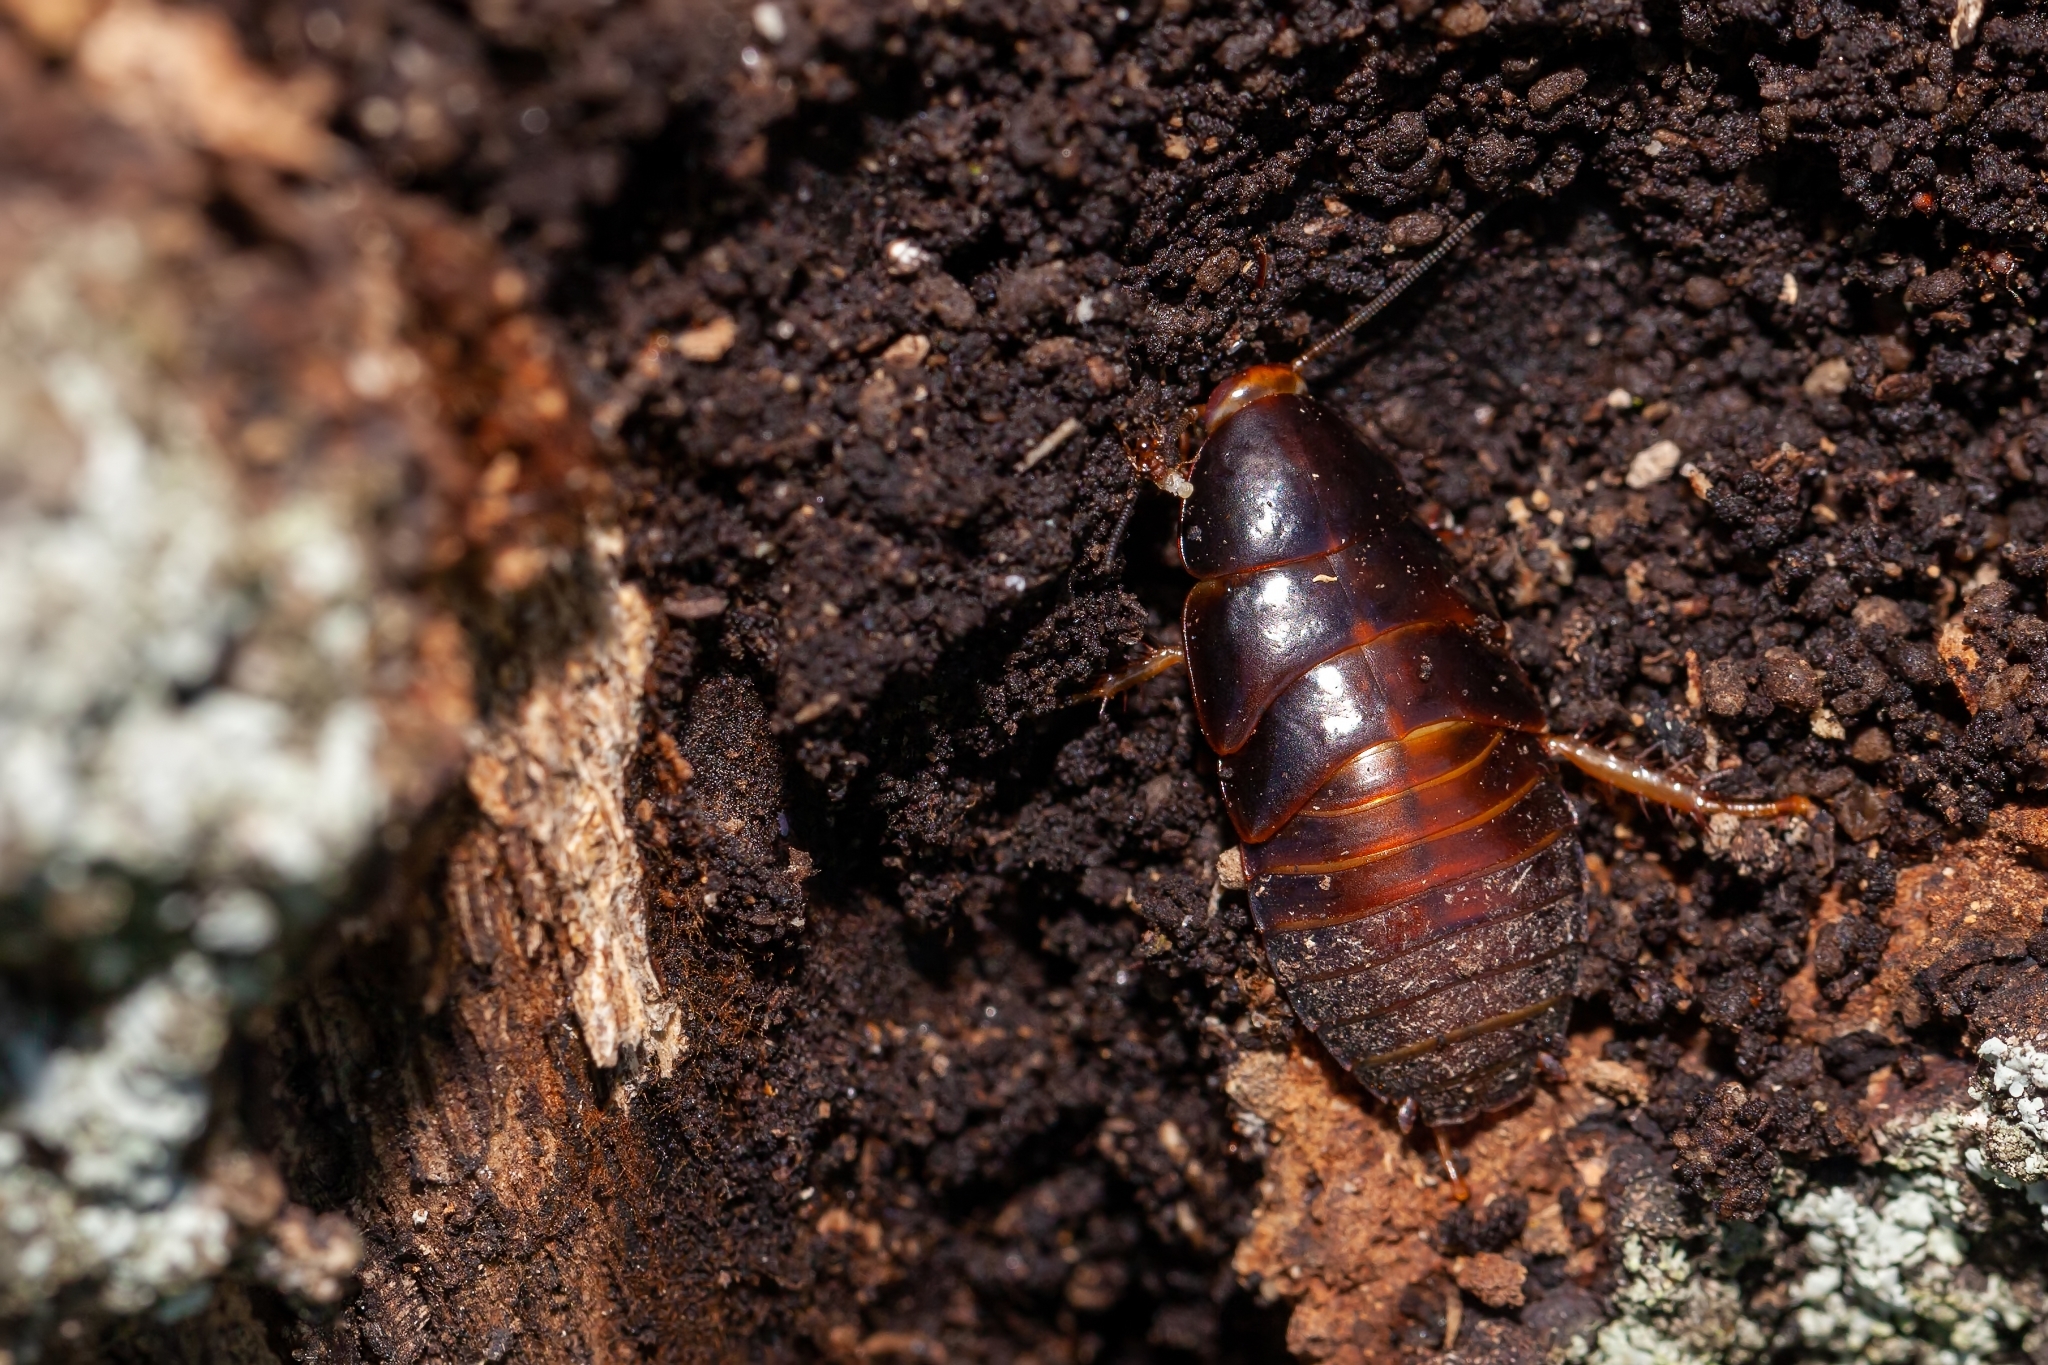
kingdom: Animalia
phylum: Arthropoda
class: Insecta
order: Blattodea
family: Blaberidae
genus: Pycnoscelus
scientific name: Pycnoscelus surinamensis
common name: Surinam cockroach
